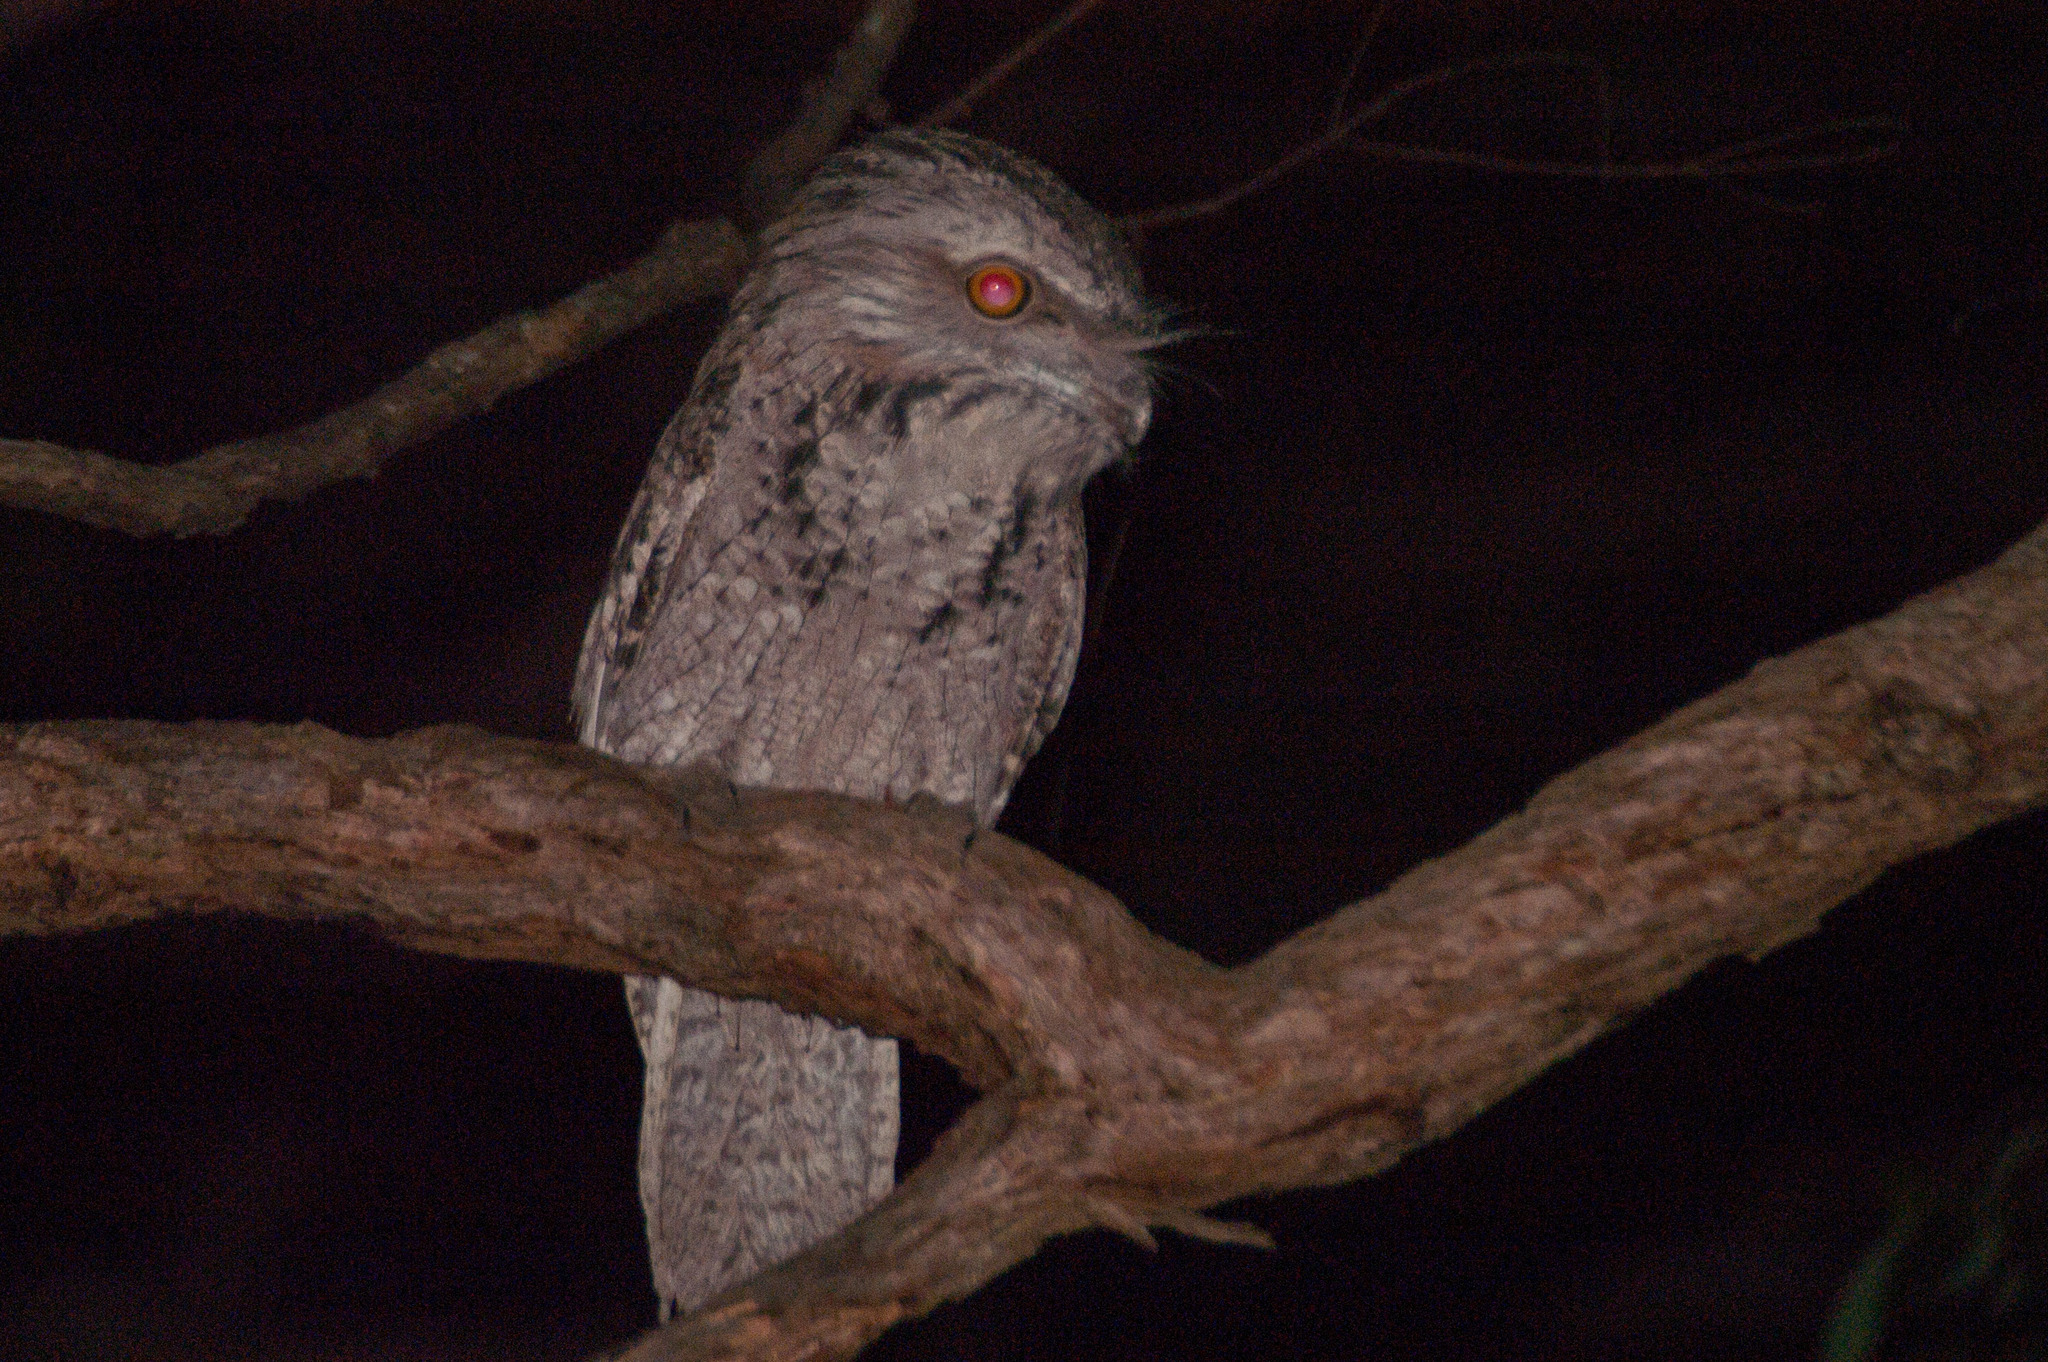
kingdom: Animalia
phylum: Chordata
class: Aves
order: Caprimulgiformes
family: Podargidae
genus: Podargus
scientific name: Podargus strigoides
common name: Tawny frogmouth
